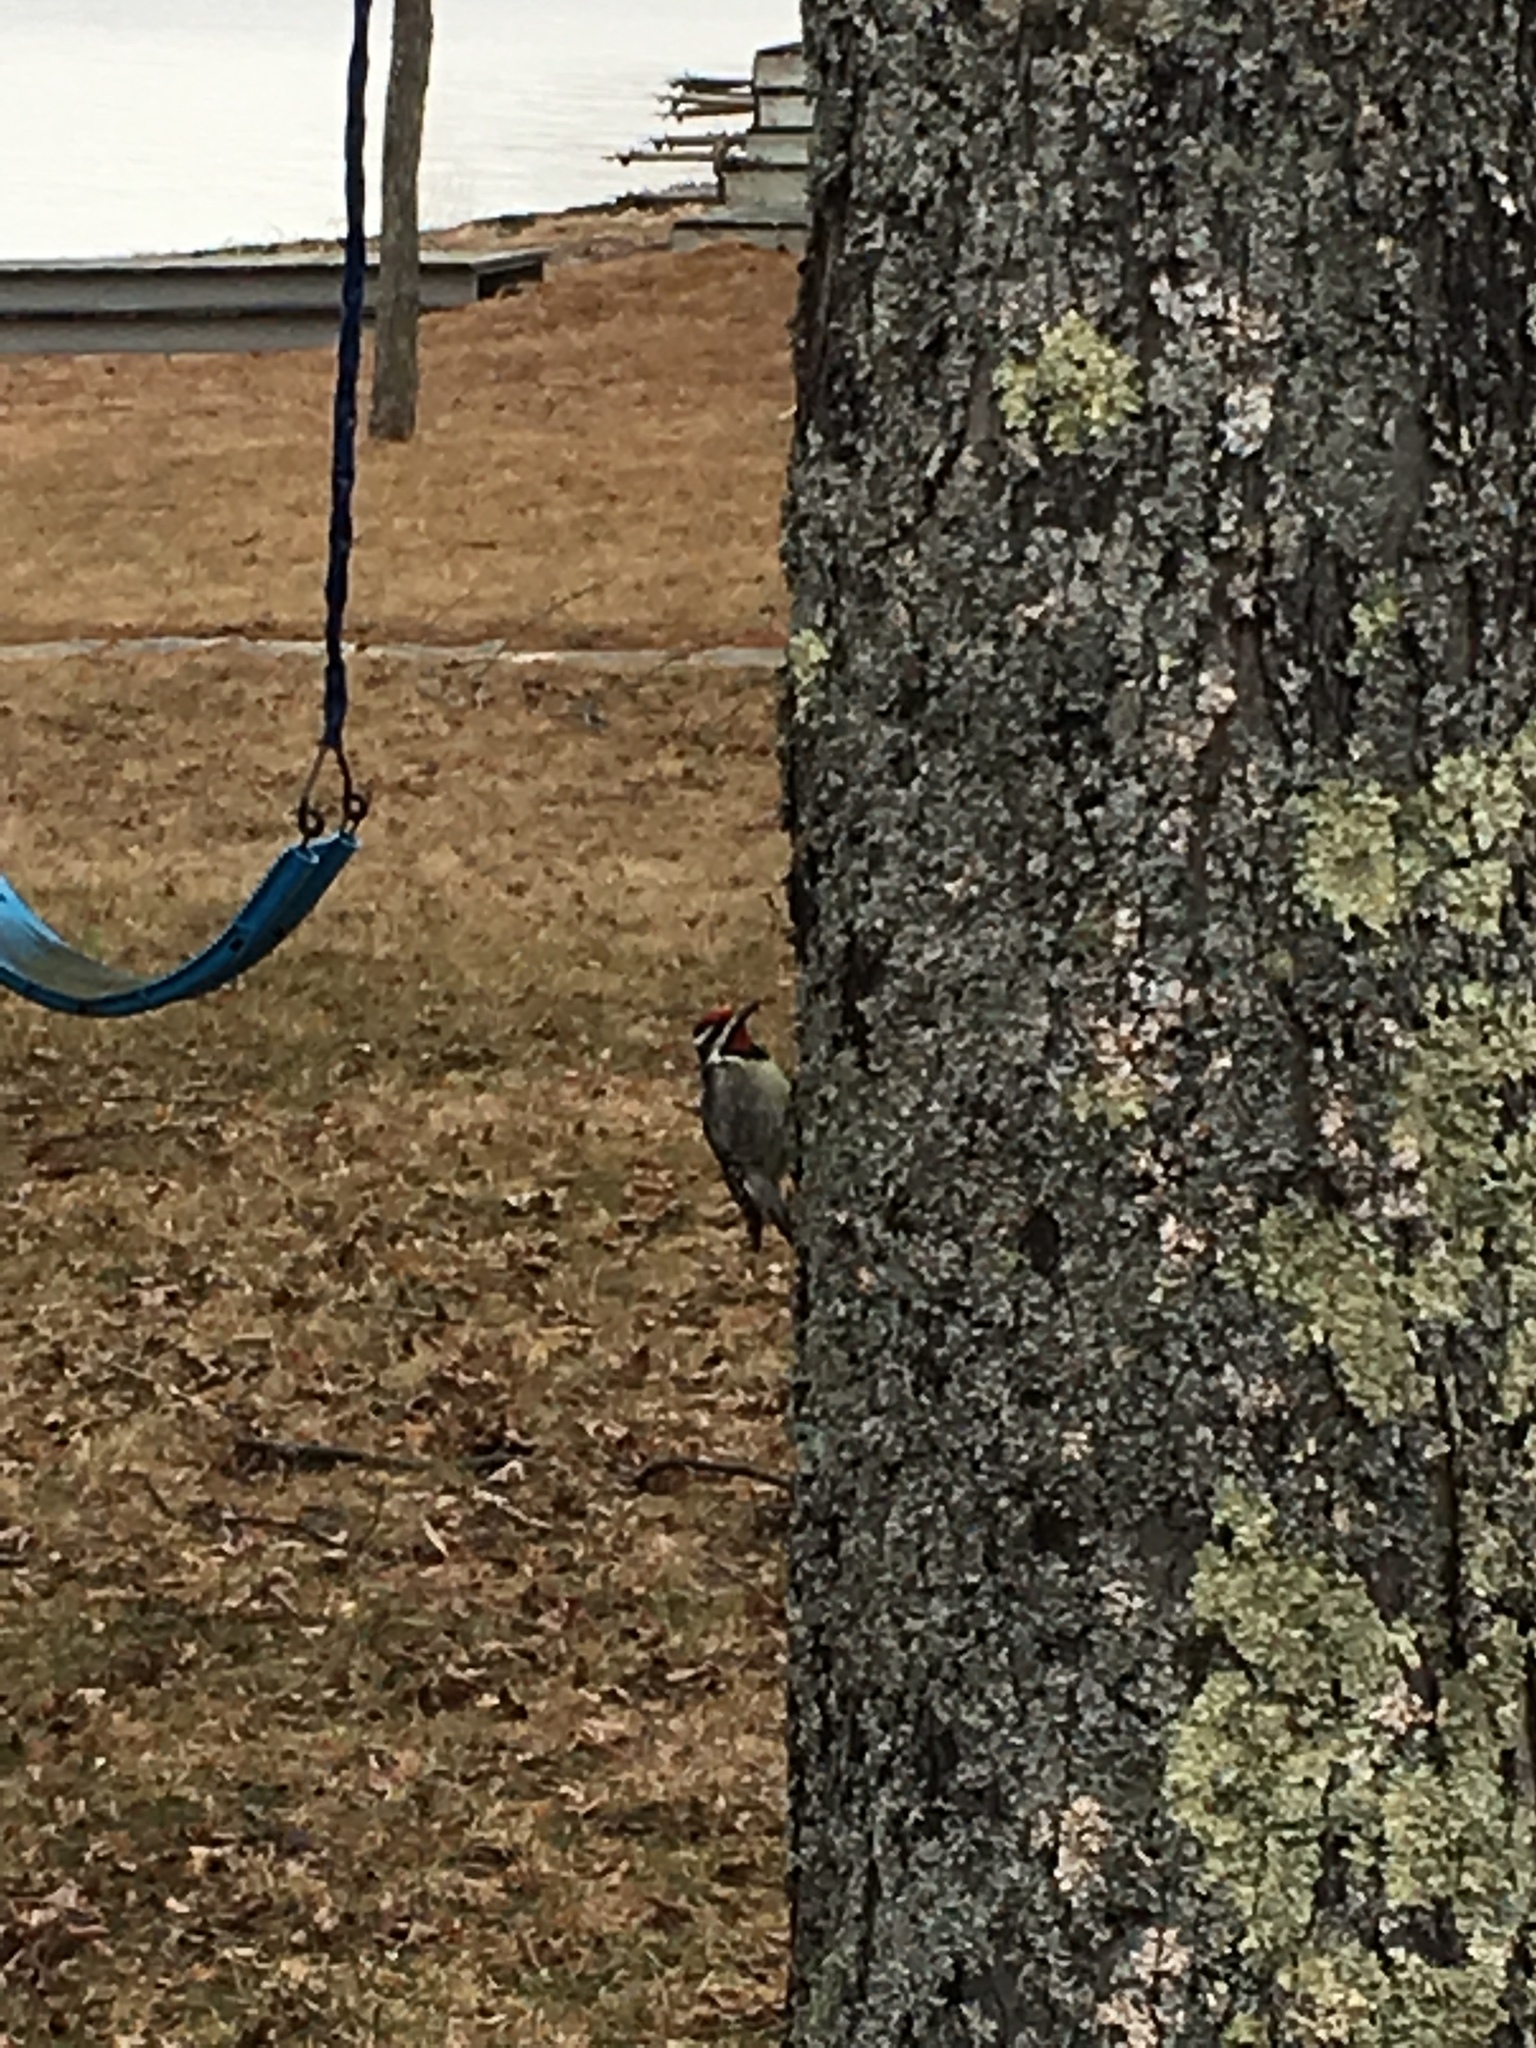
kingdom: Animalia
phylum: Chordata
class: Aves
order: Piciformes
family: Picidae
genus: Sphyrapicus
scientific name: Sphyrapicus varius
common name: Yellow-bellied sapsucker
